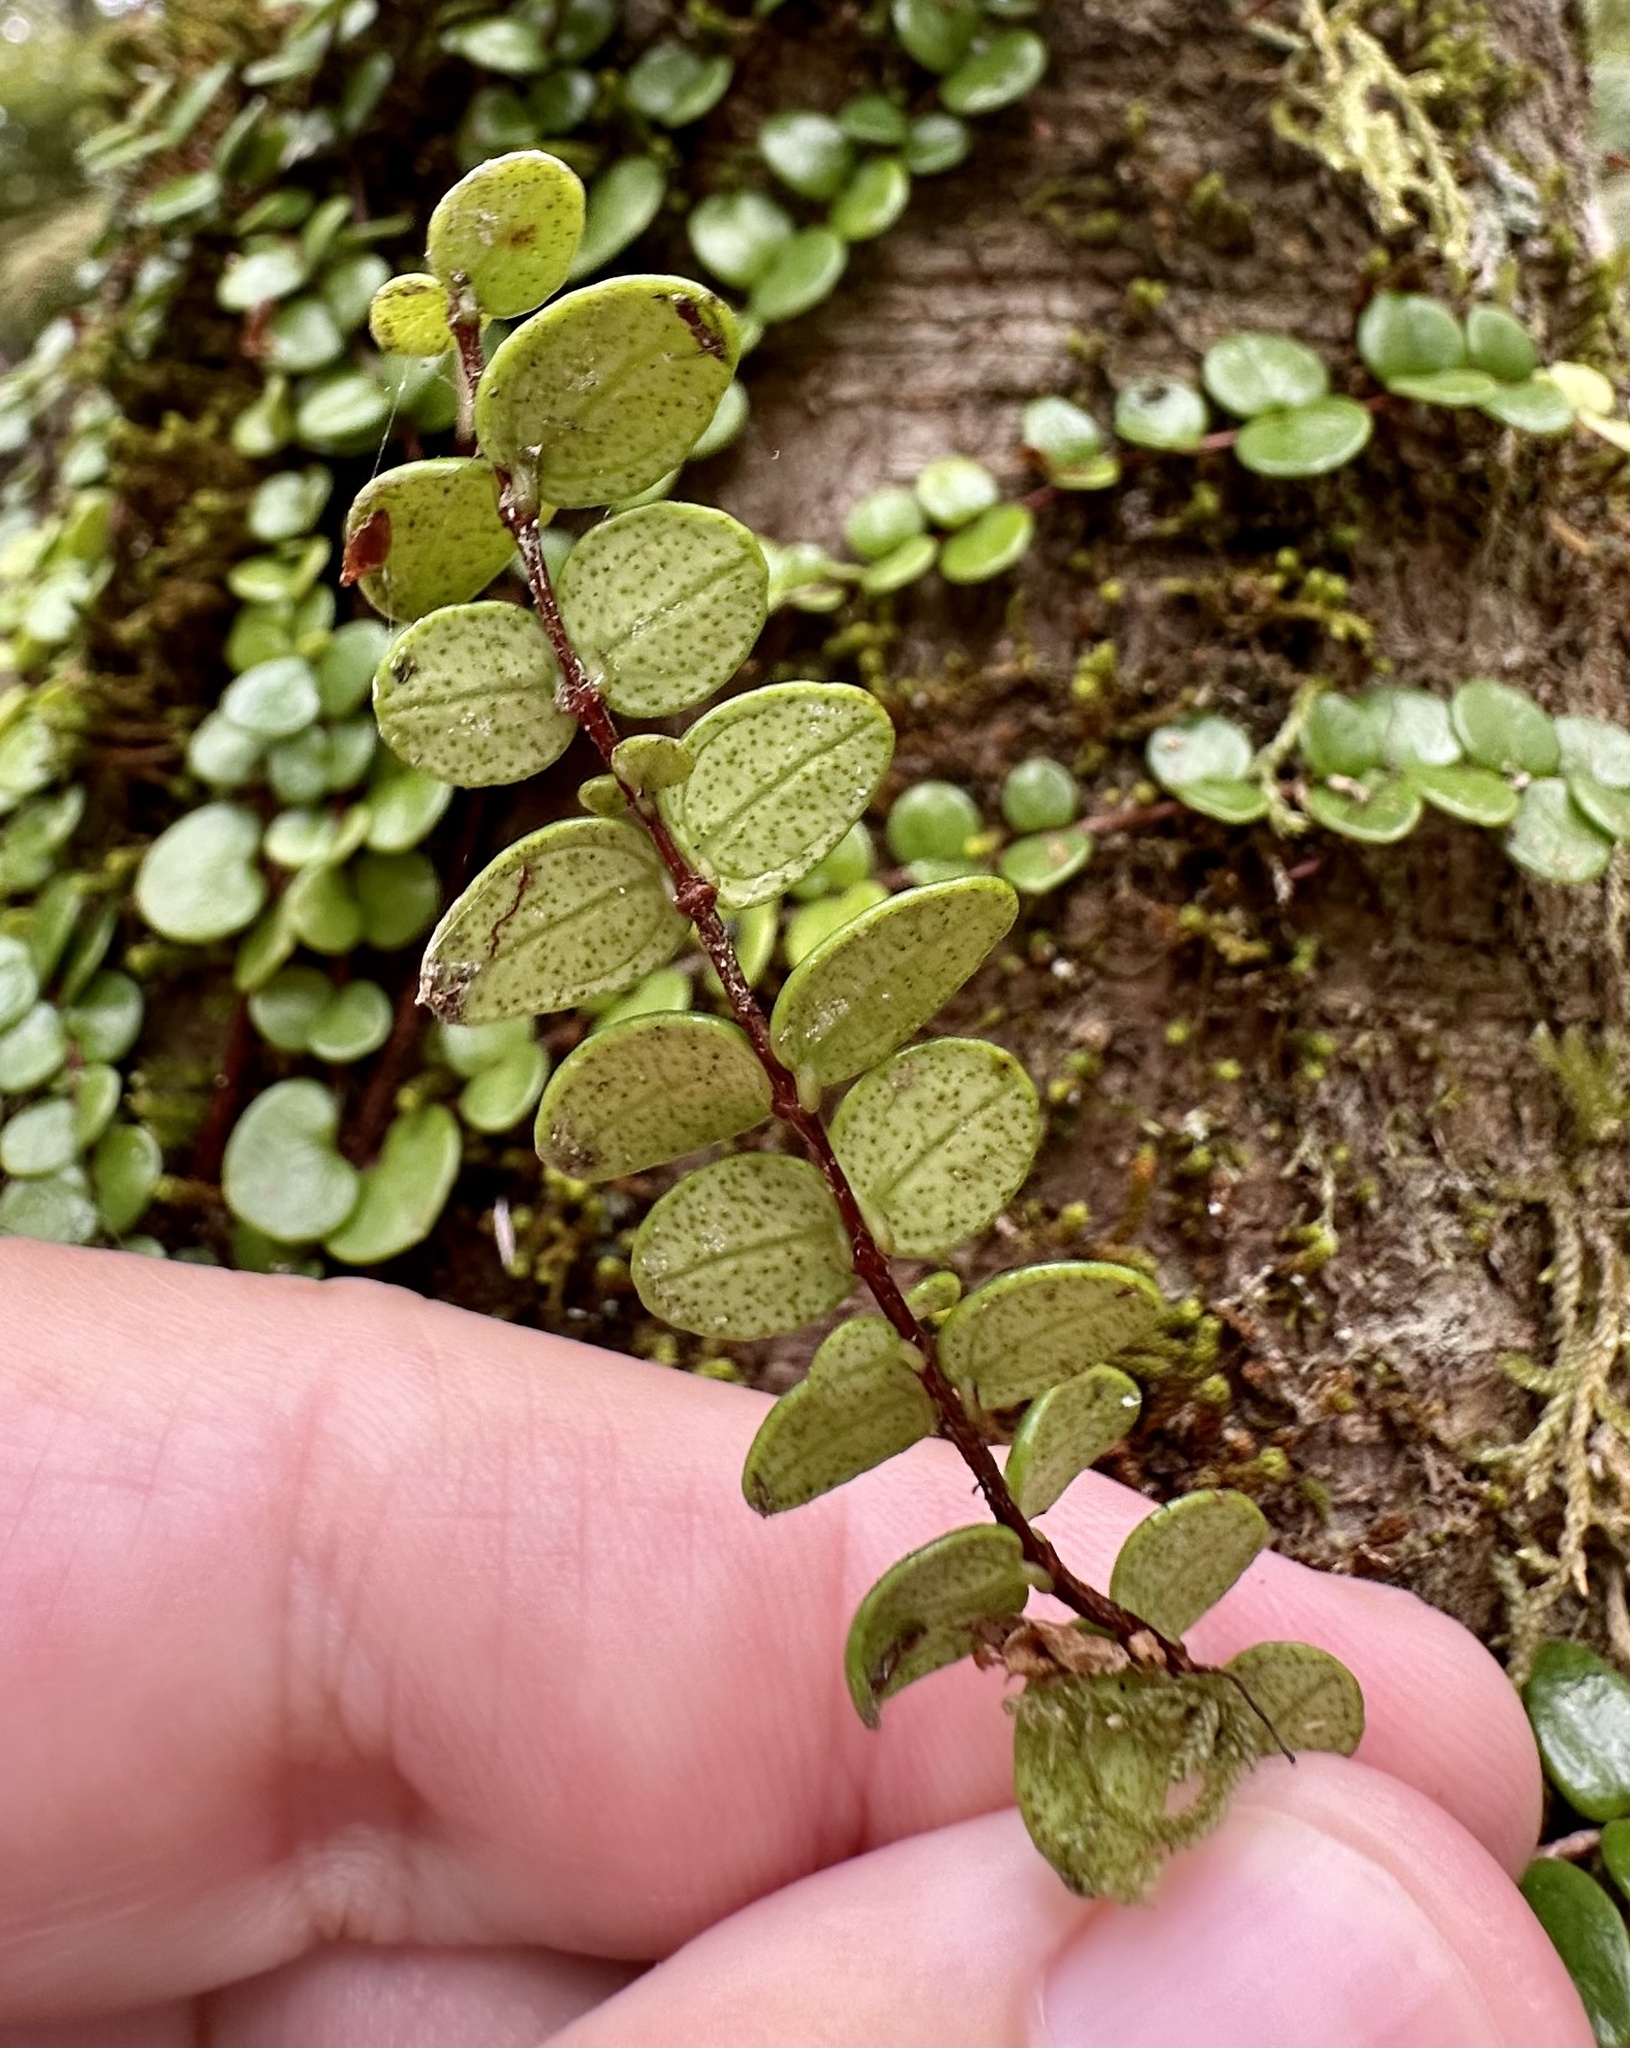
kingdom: Plantae
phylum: Tracheophyta
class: Magnoliopsida
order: Myrtales
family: Myrtaceae
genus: Metrosideros
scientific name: Metrosideros perforata
